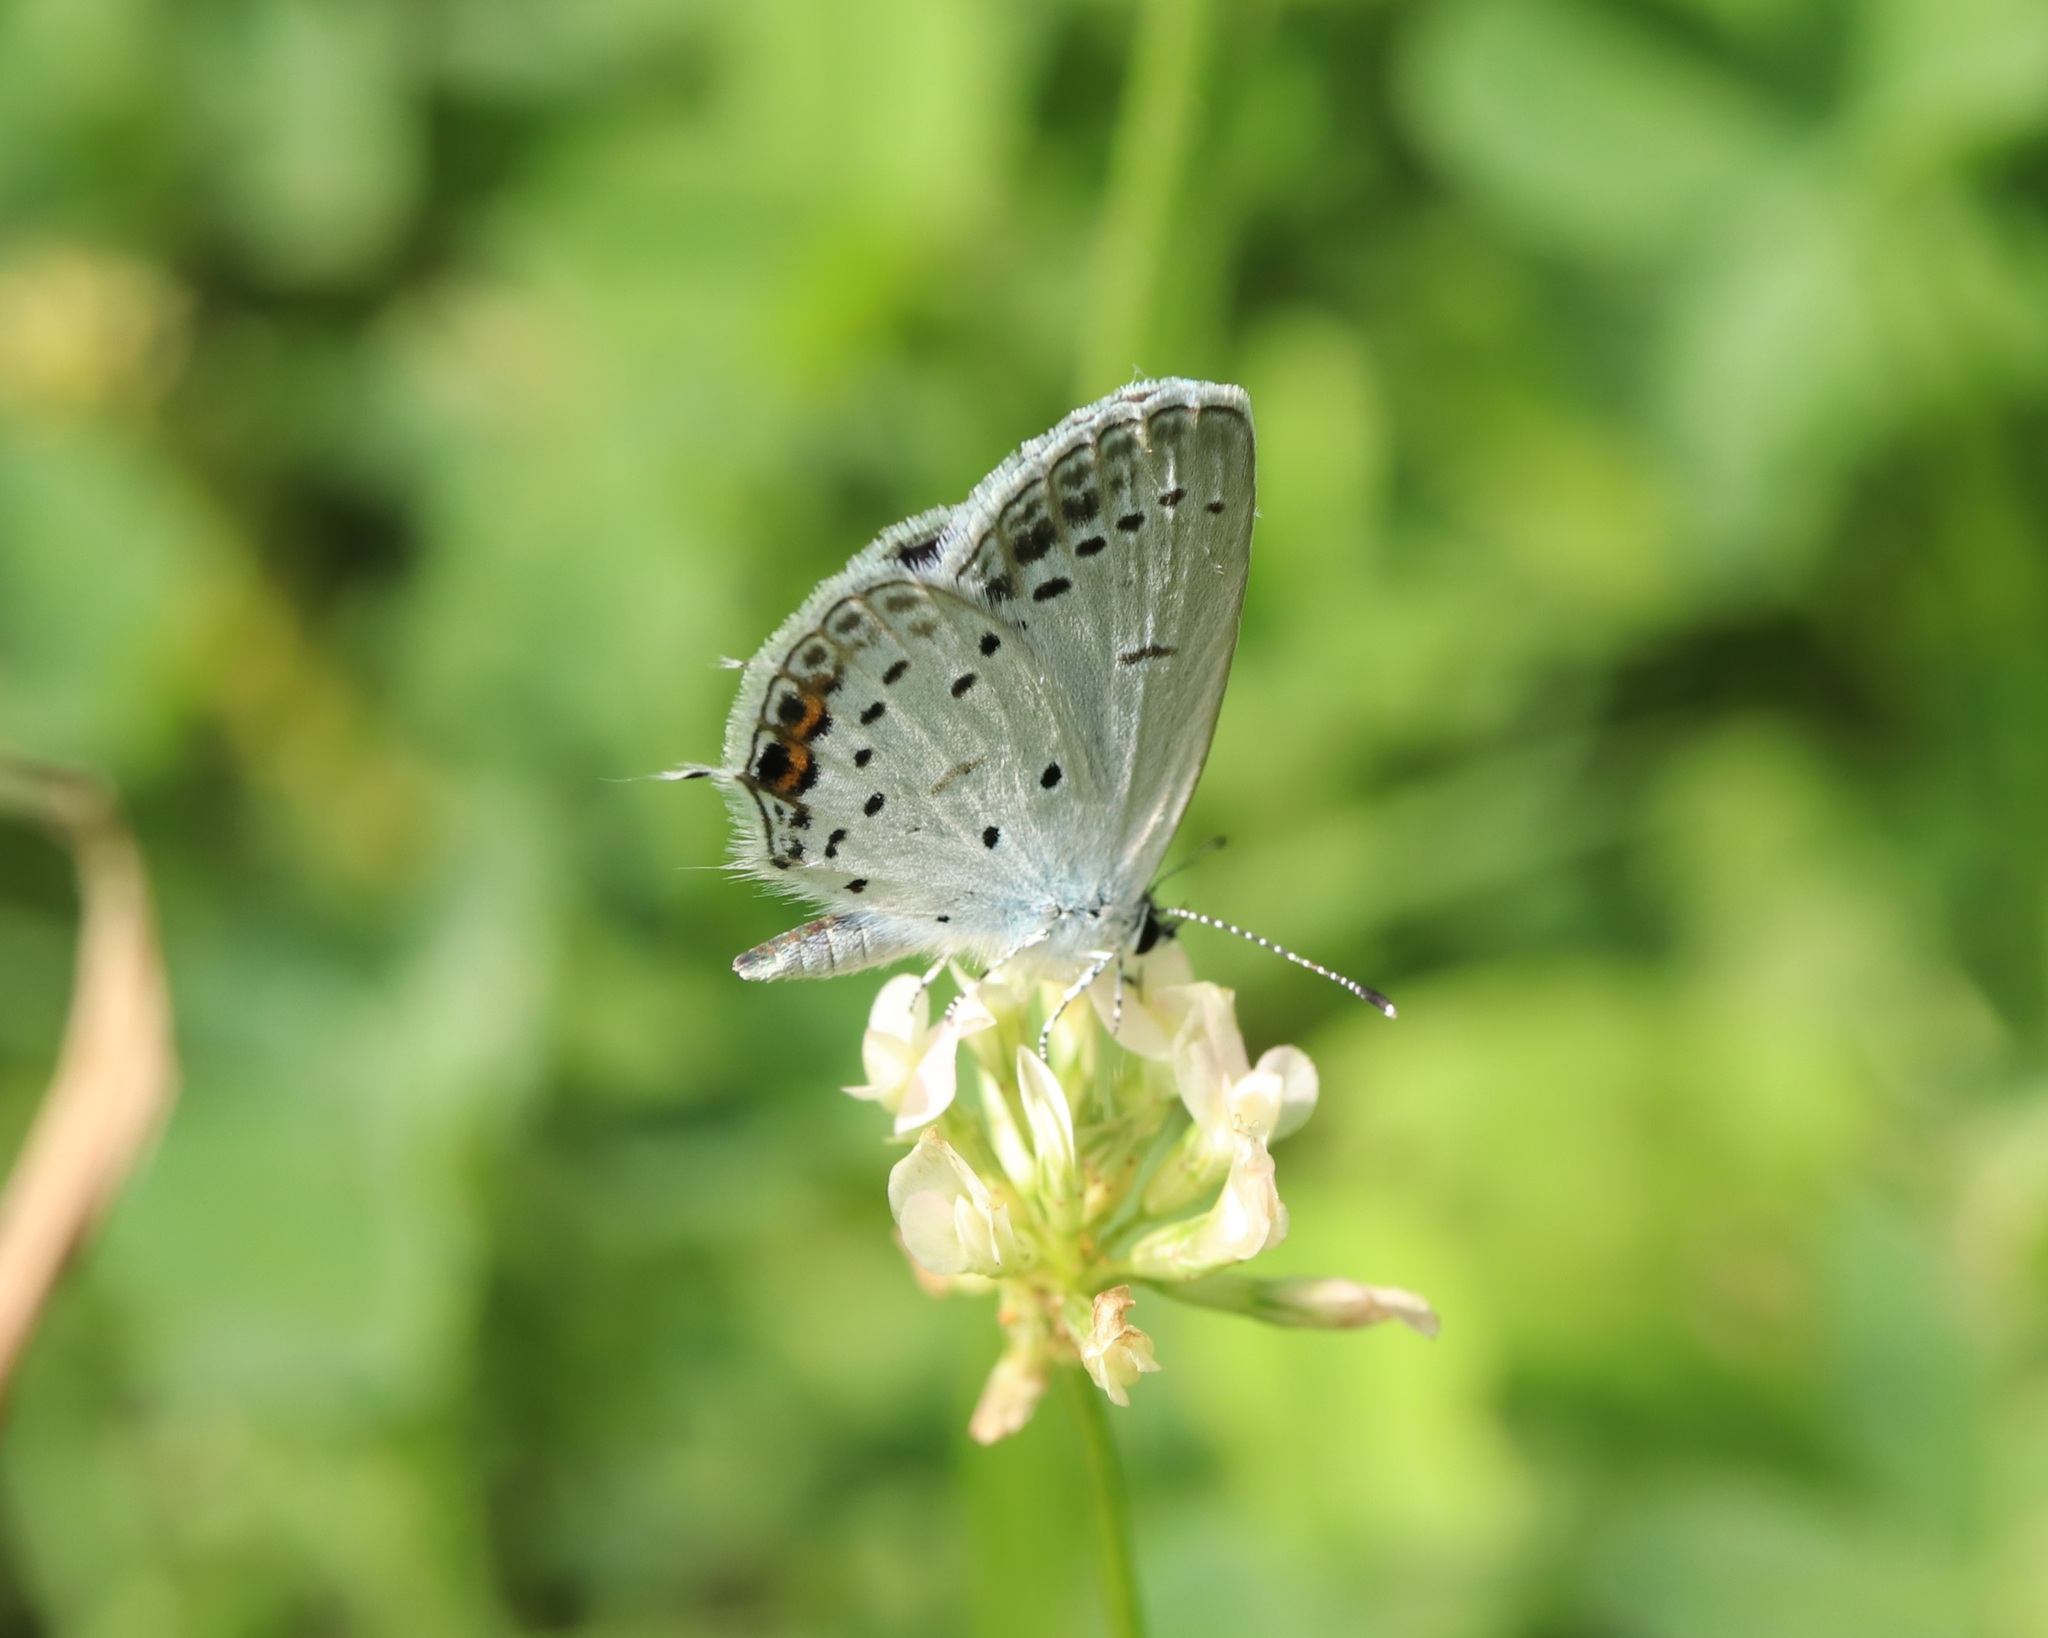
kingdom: Animalia
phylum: Arthropoda
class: Insecta
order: Lepidoptera
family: Lycaenidae
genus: Elkalyce
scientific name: Elkalyce argiades
